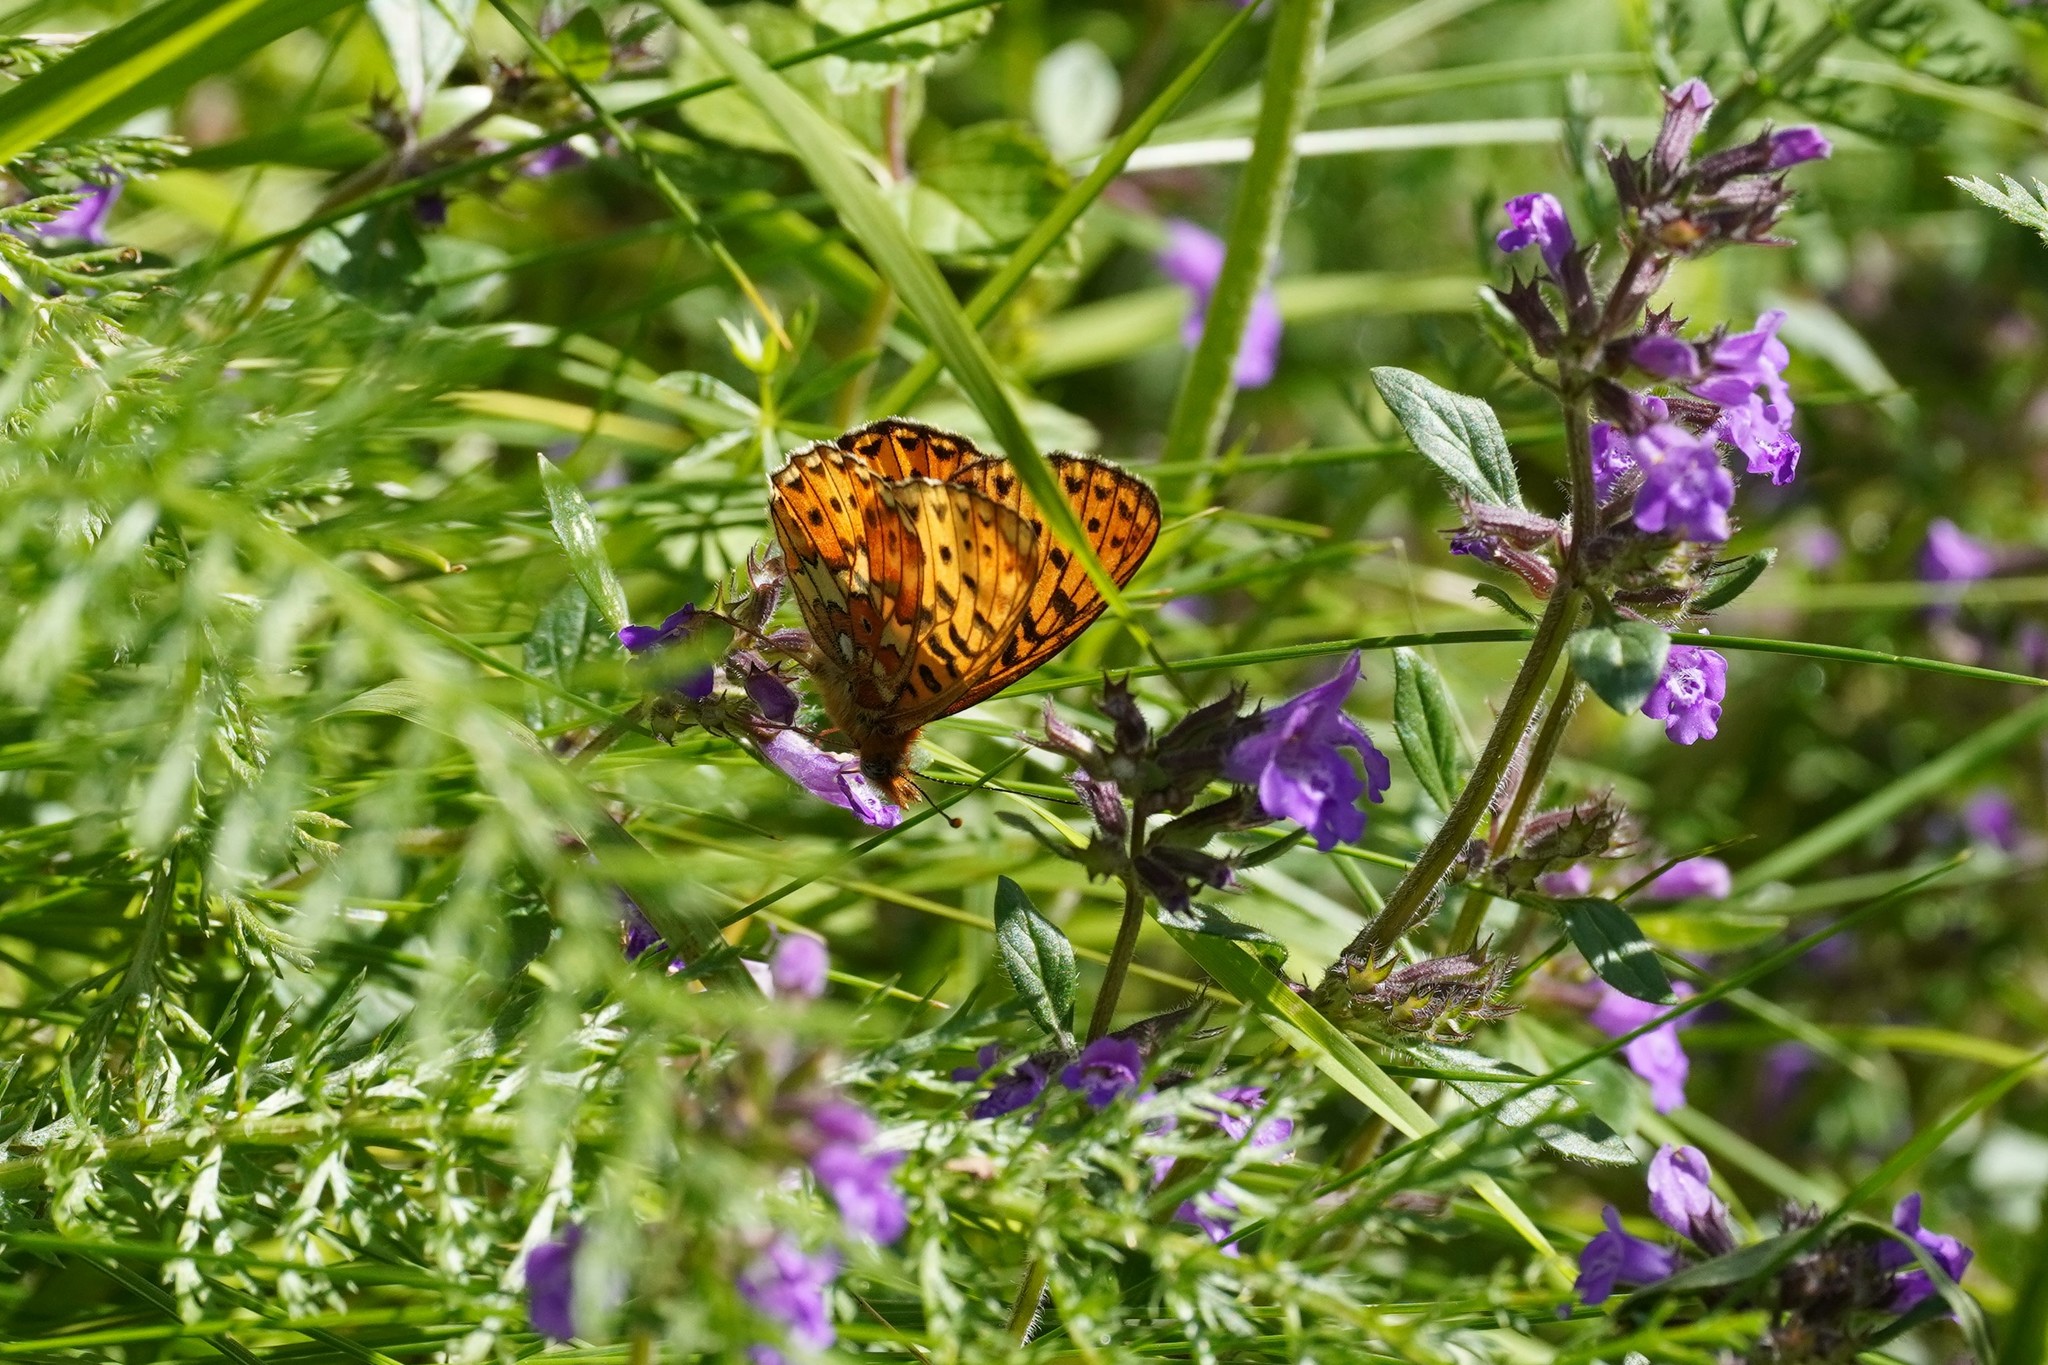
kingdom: Animalia
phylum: Arthropoda
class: Insecta
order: Lepidoptera
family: Nymphalidae
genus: Clossiana
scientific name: Clossiana euphrosyne
